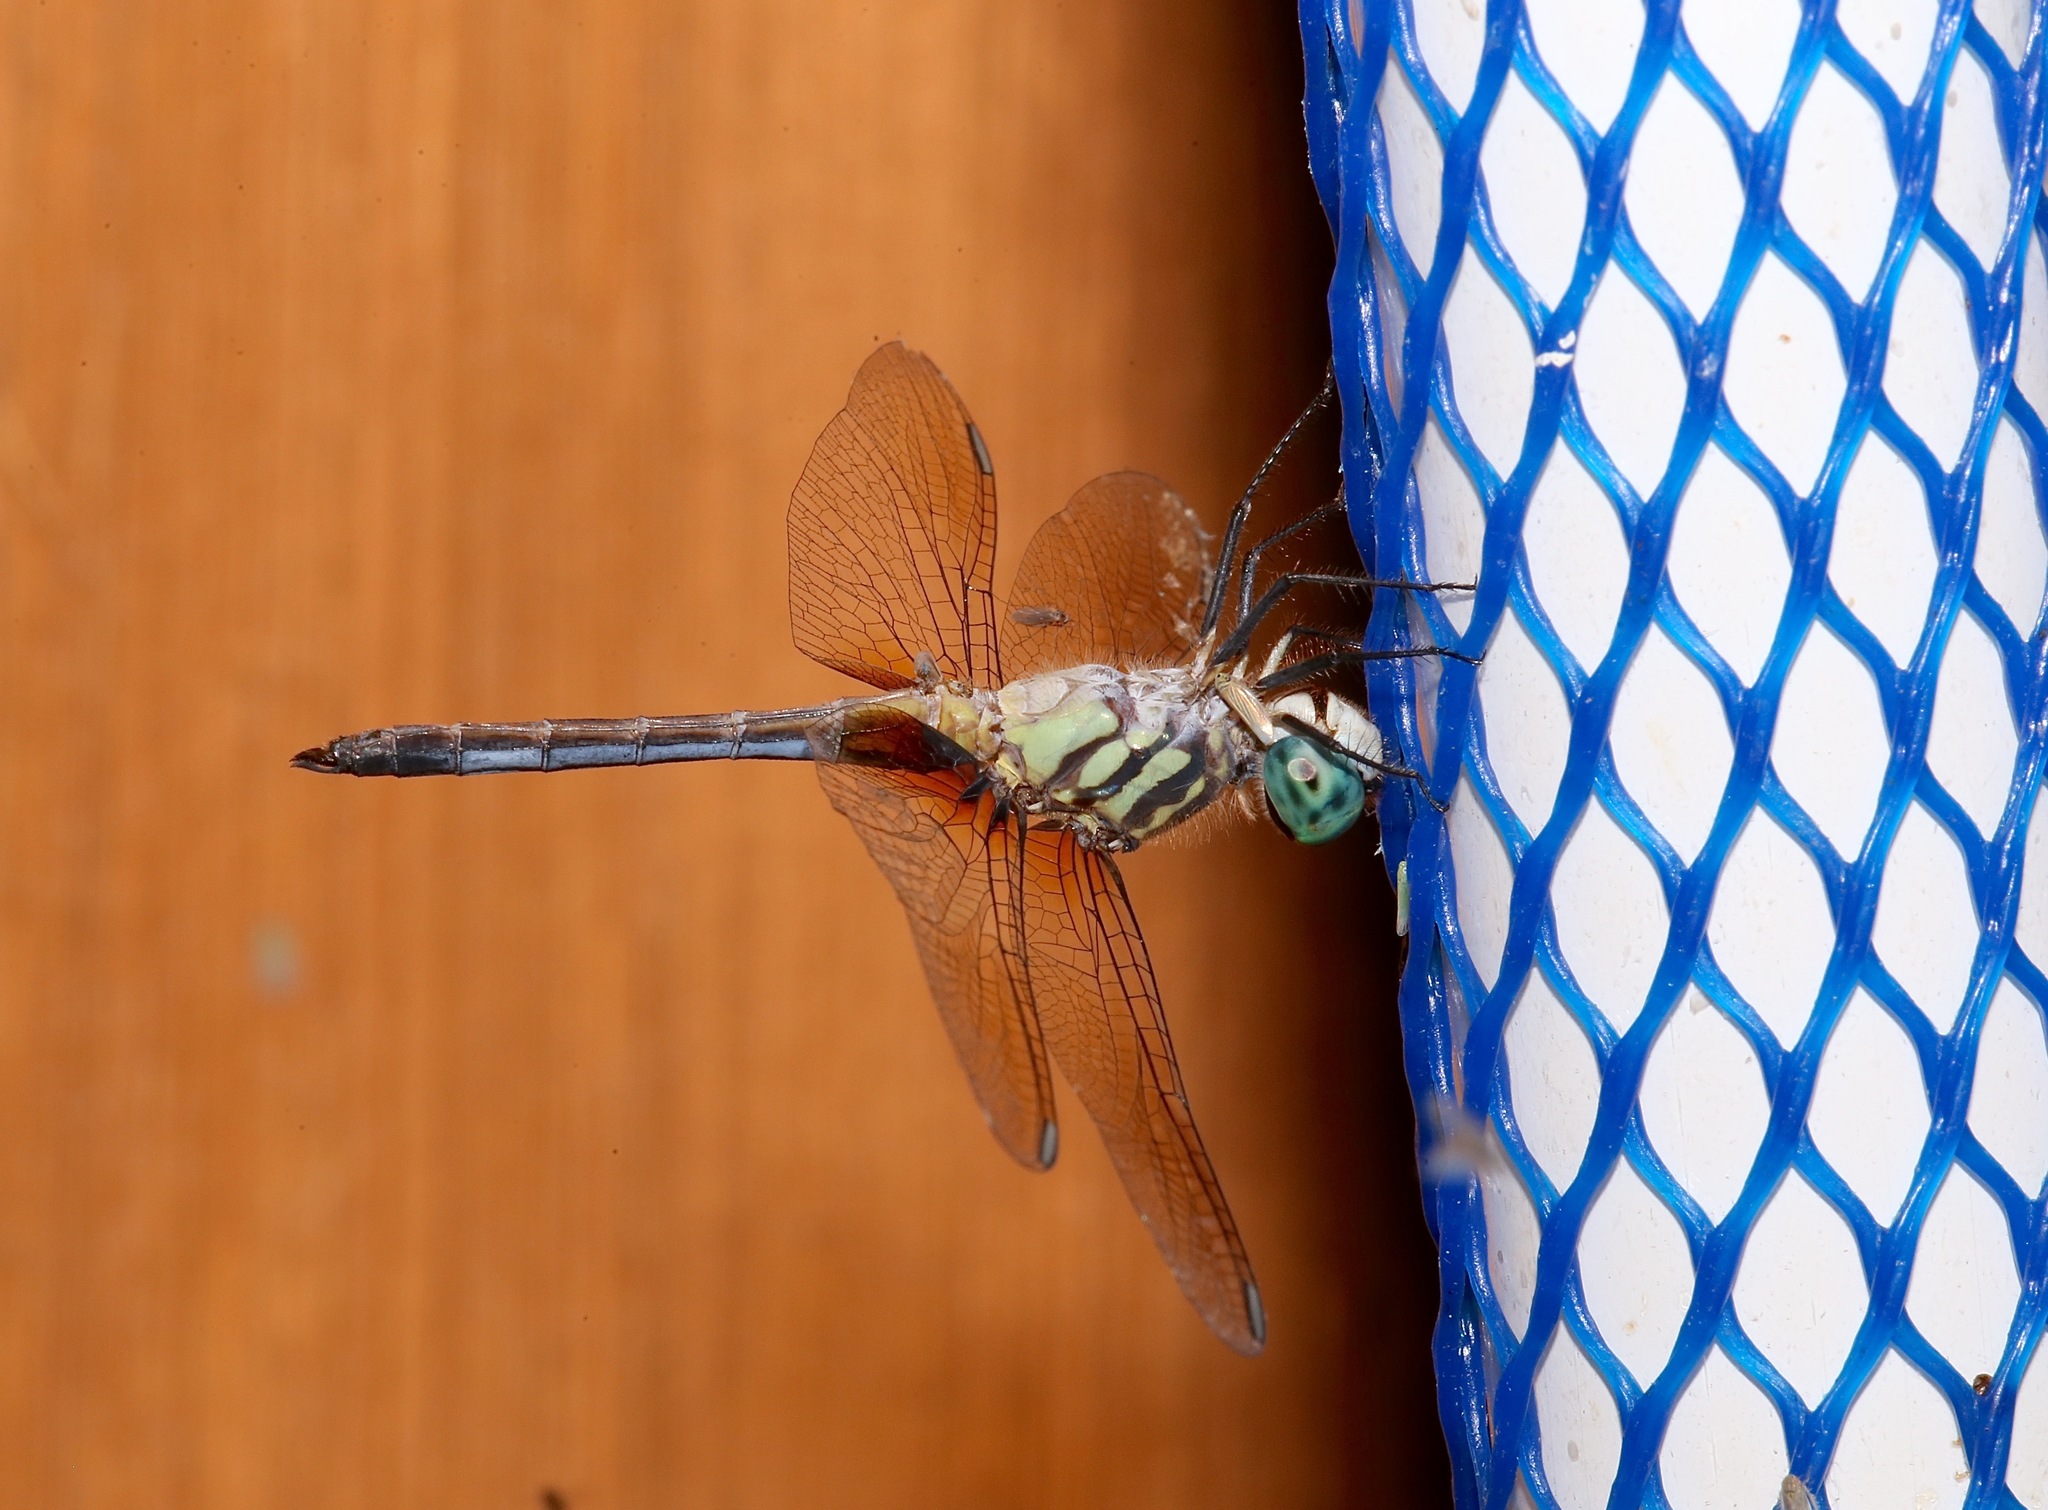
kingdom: Animalia
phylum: Arthropoda
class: Insecta
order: Odonata
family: Libellulidae
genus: Pachydiplax
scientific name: Pachydiplax longipennis
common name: Blue dasher
